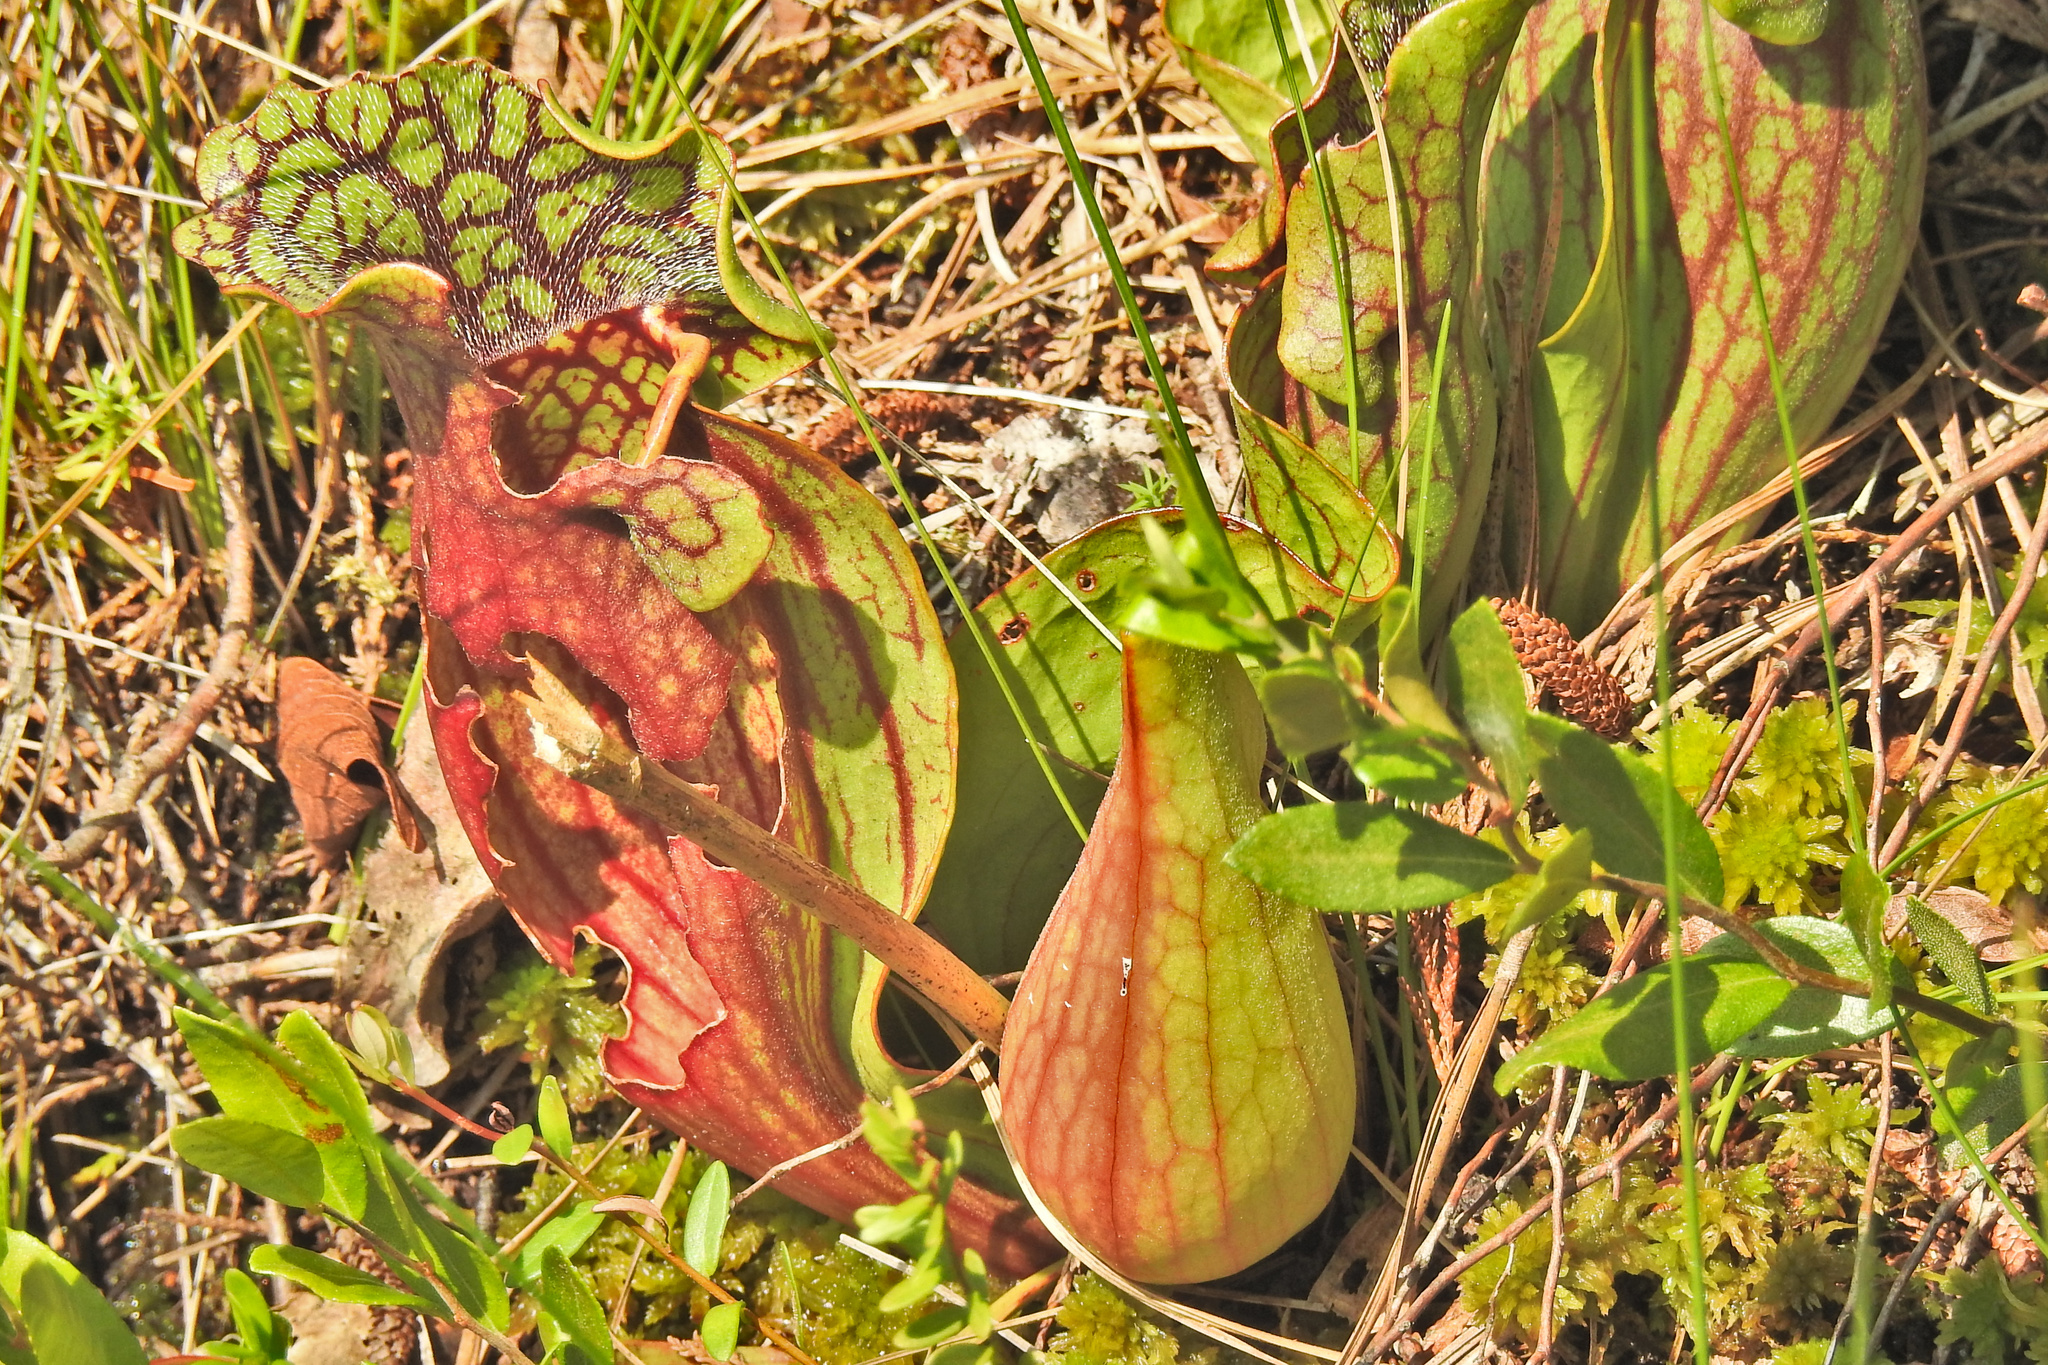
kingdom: Plantae
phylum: Tracheophyta
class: Magnoliopsida
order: Ericales
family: Sarraceniaceae
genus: Sarracenia
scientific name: Sarracenia purpurea
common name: Pitcherplant
